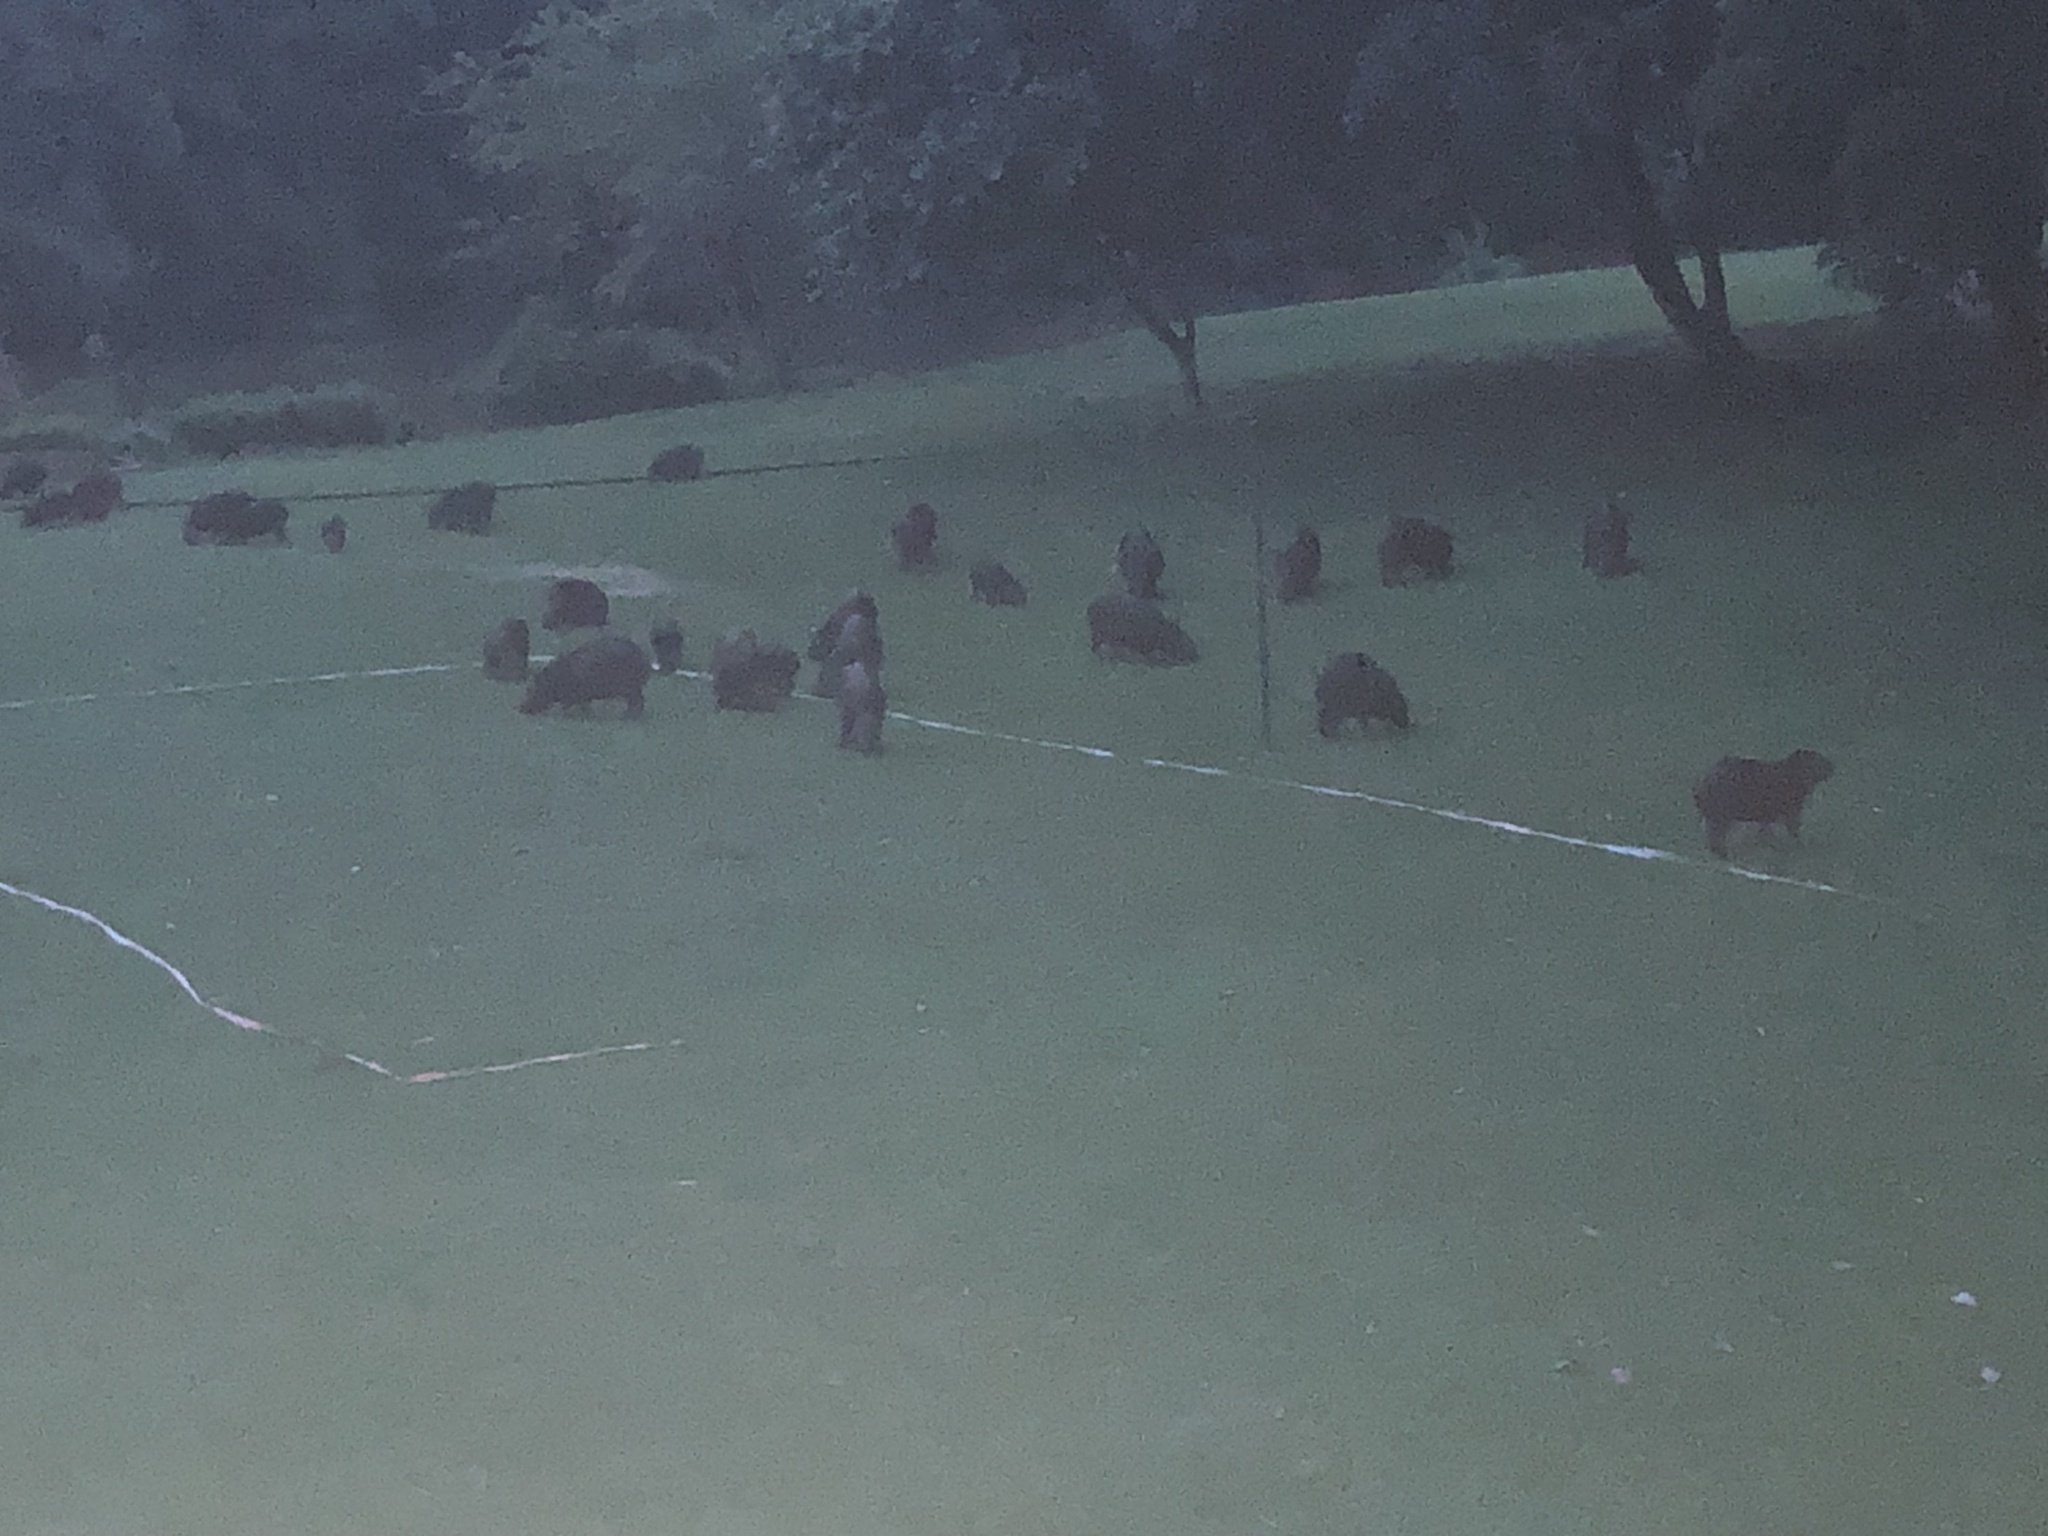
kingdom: Animalia
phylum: Chordata
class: Mammalia
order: Rodentia
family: Caviidae
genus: Hydrochoerus
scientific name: Hydrochoerus hydrochaeris
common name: Capybara
